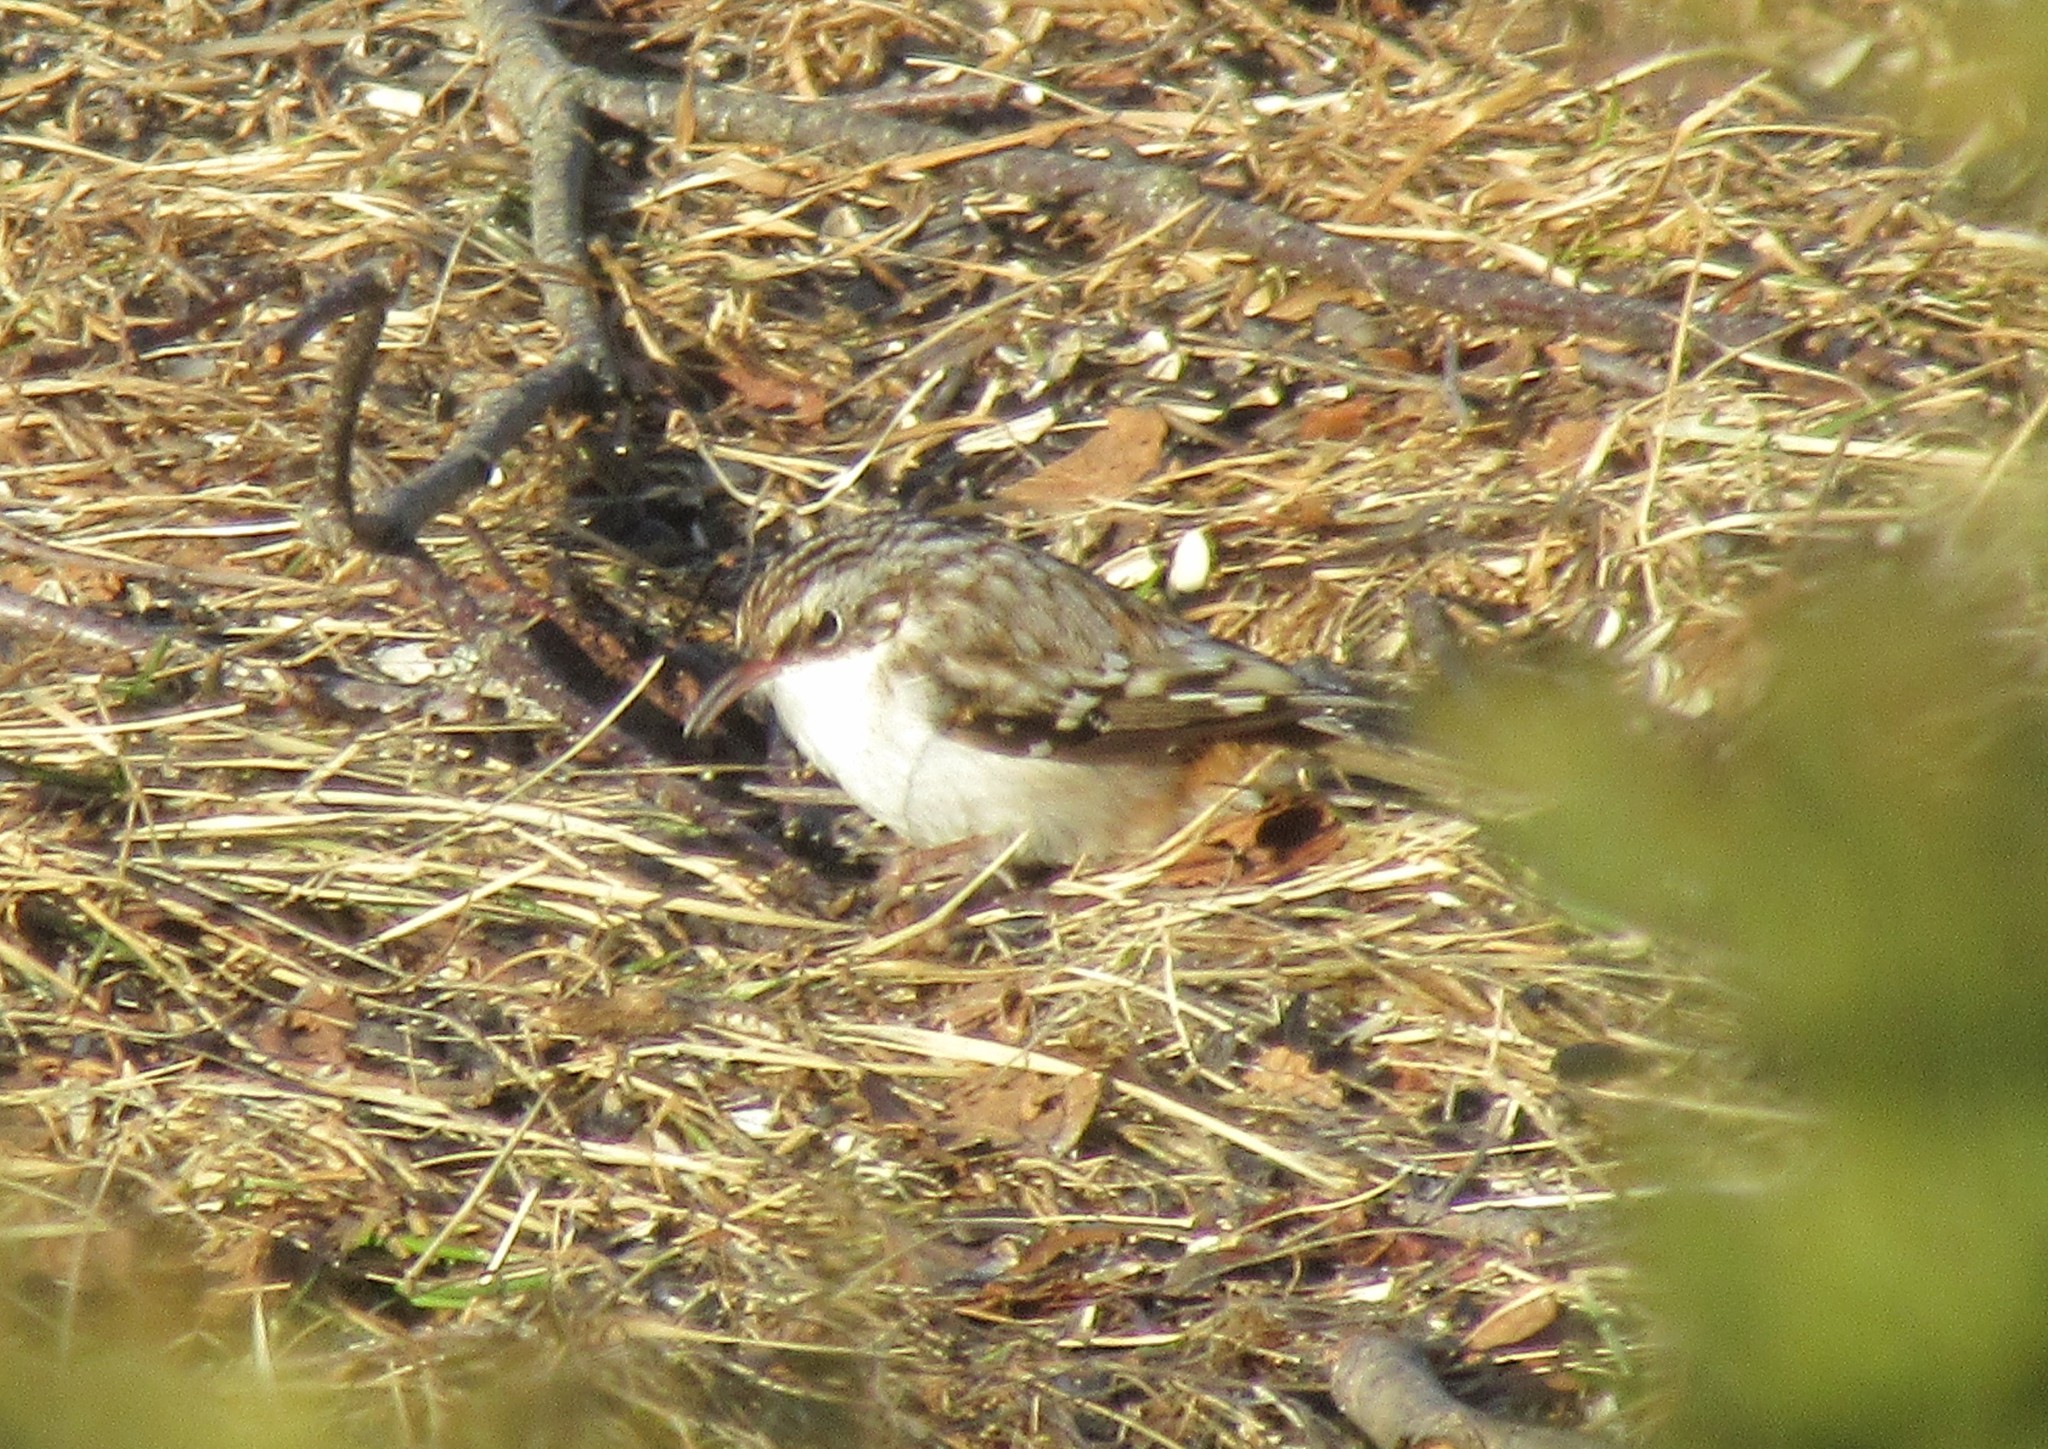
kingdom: Animalia
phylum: Chordata
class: Aves
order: Passeriformes
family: Certhiidae
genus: Certhia
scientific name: Certhia americana
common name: Brown creeper
